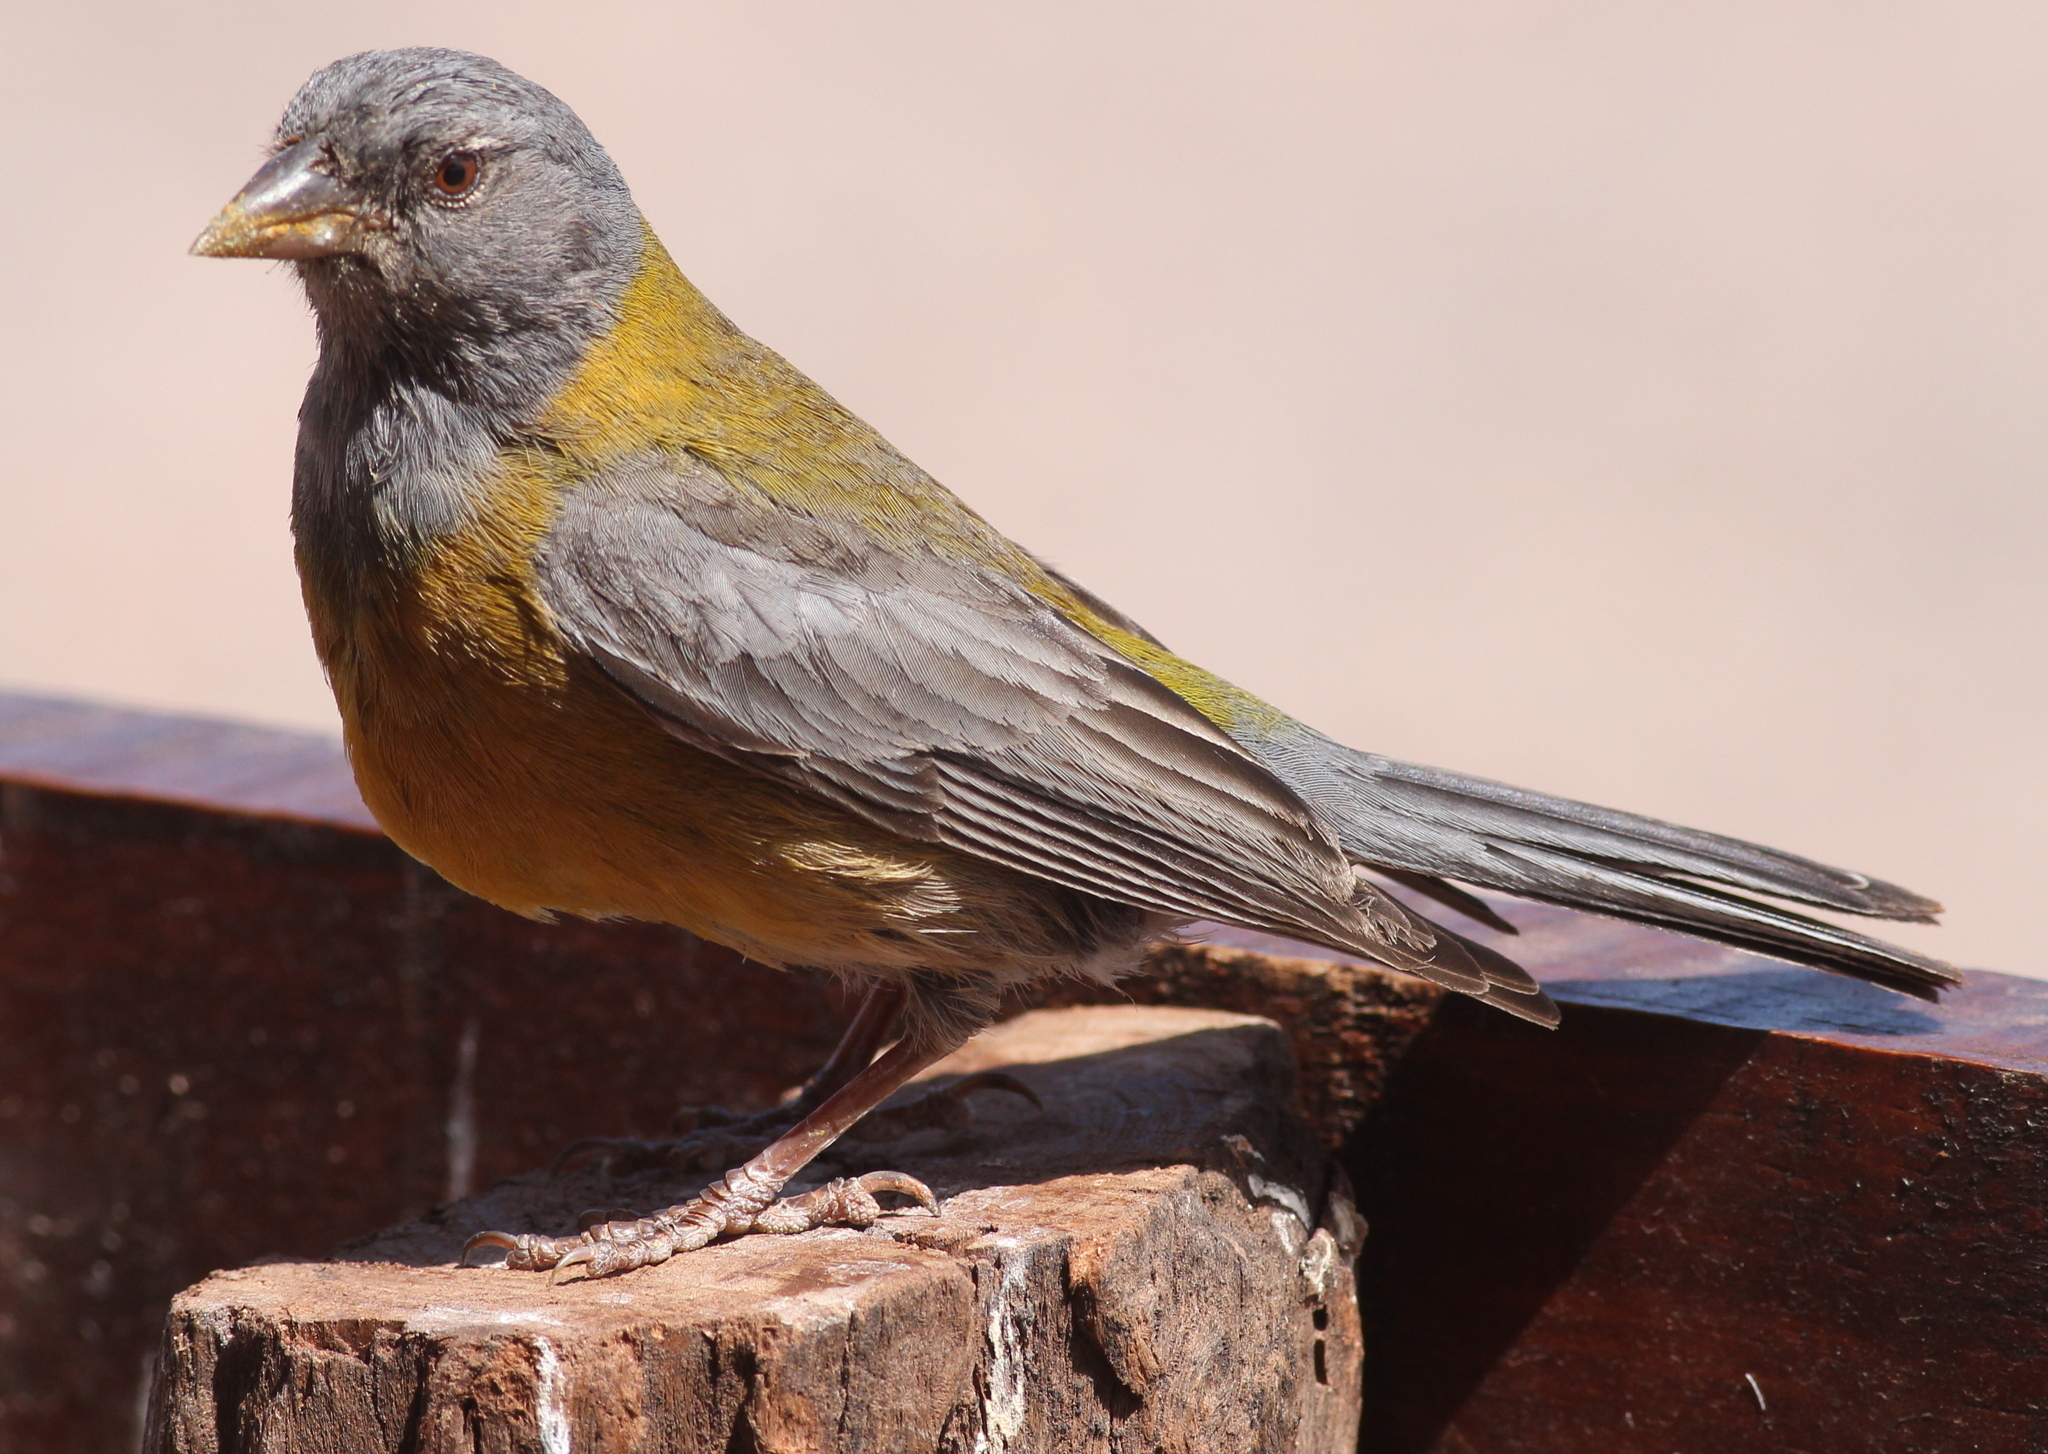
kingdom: Animalia
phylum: Chordata
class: Aves
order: Passeriformes
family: Thraupidae
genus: Phrygilus
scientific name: Phrygilus gayi
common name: Grey-hooded sierra finch
